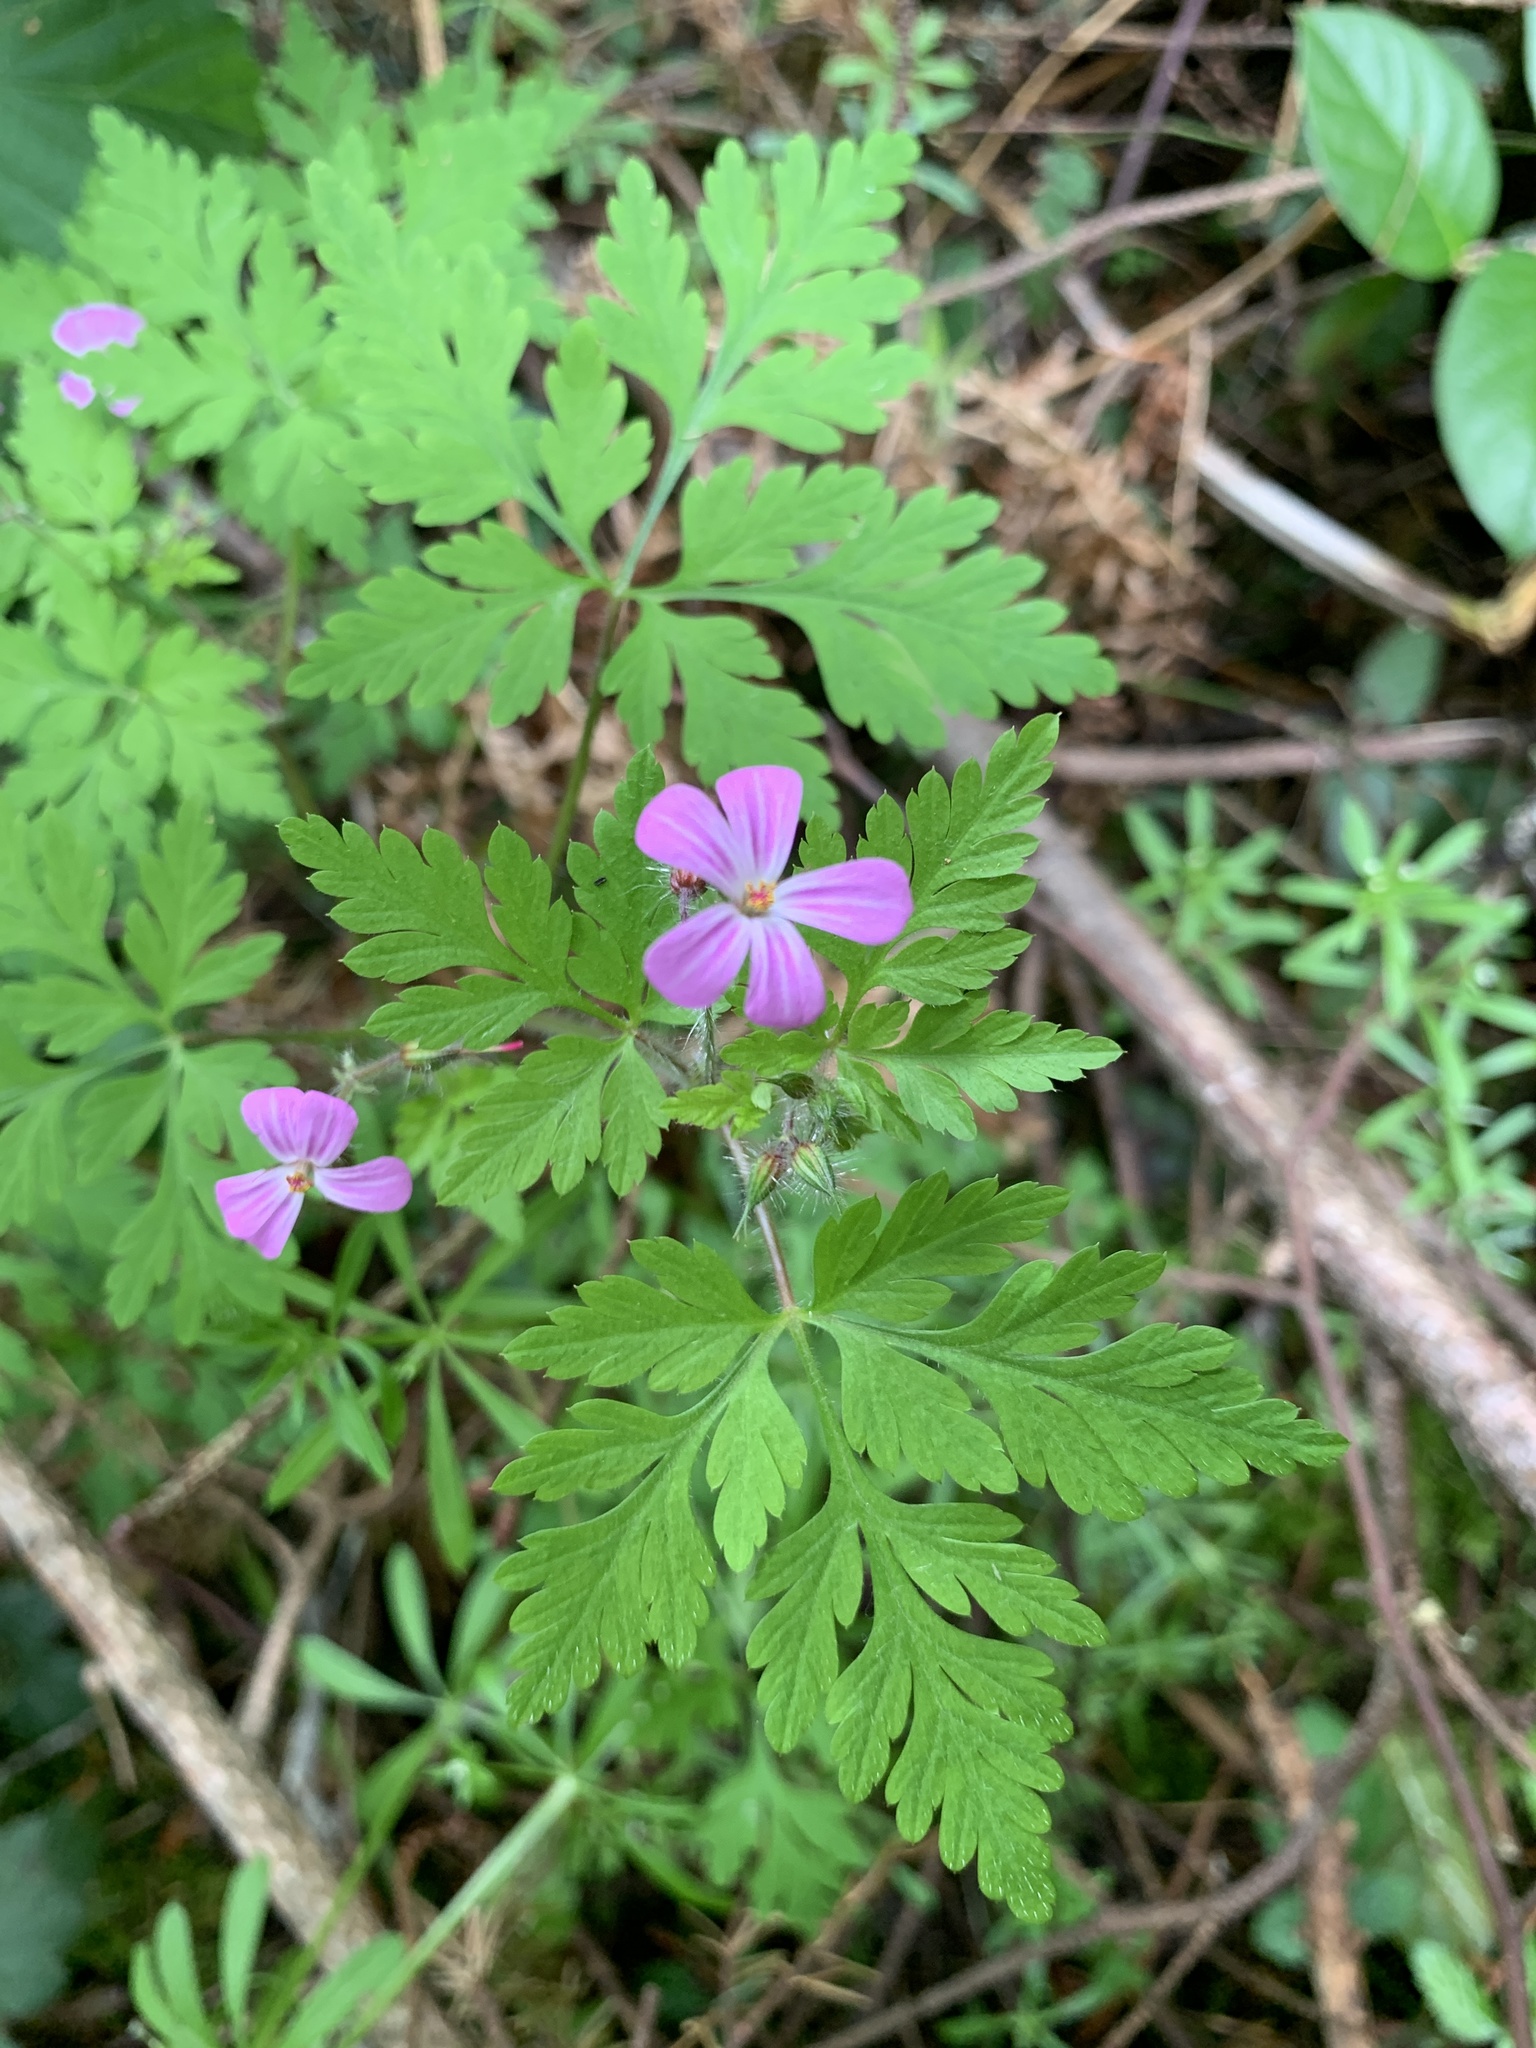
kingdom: Plantae
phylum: Tracheophyta
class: Magnoliopsida
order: Geraniales
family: Geraniaceae
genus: Geranium
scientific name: Geranium robertianum
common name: Herb-robert
